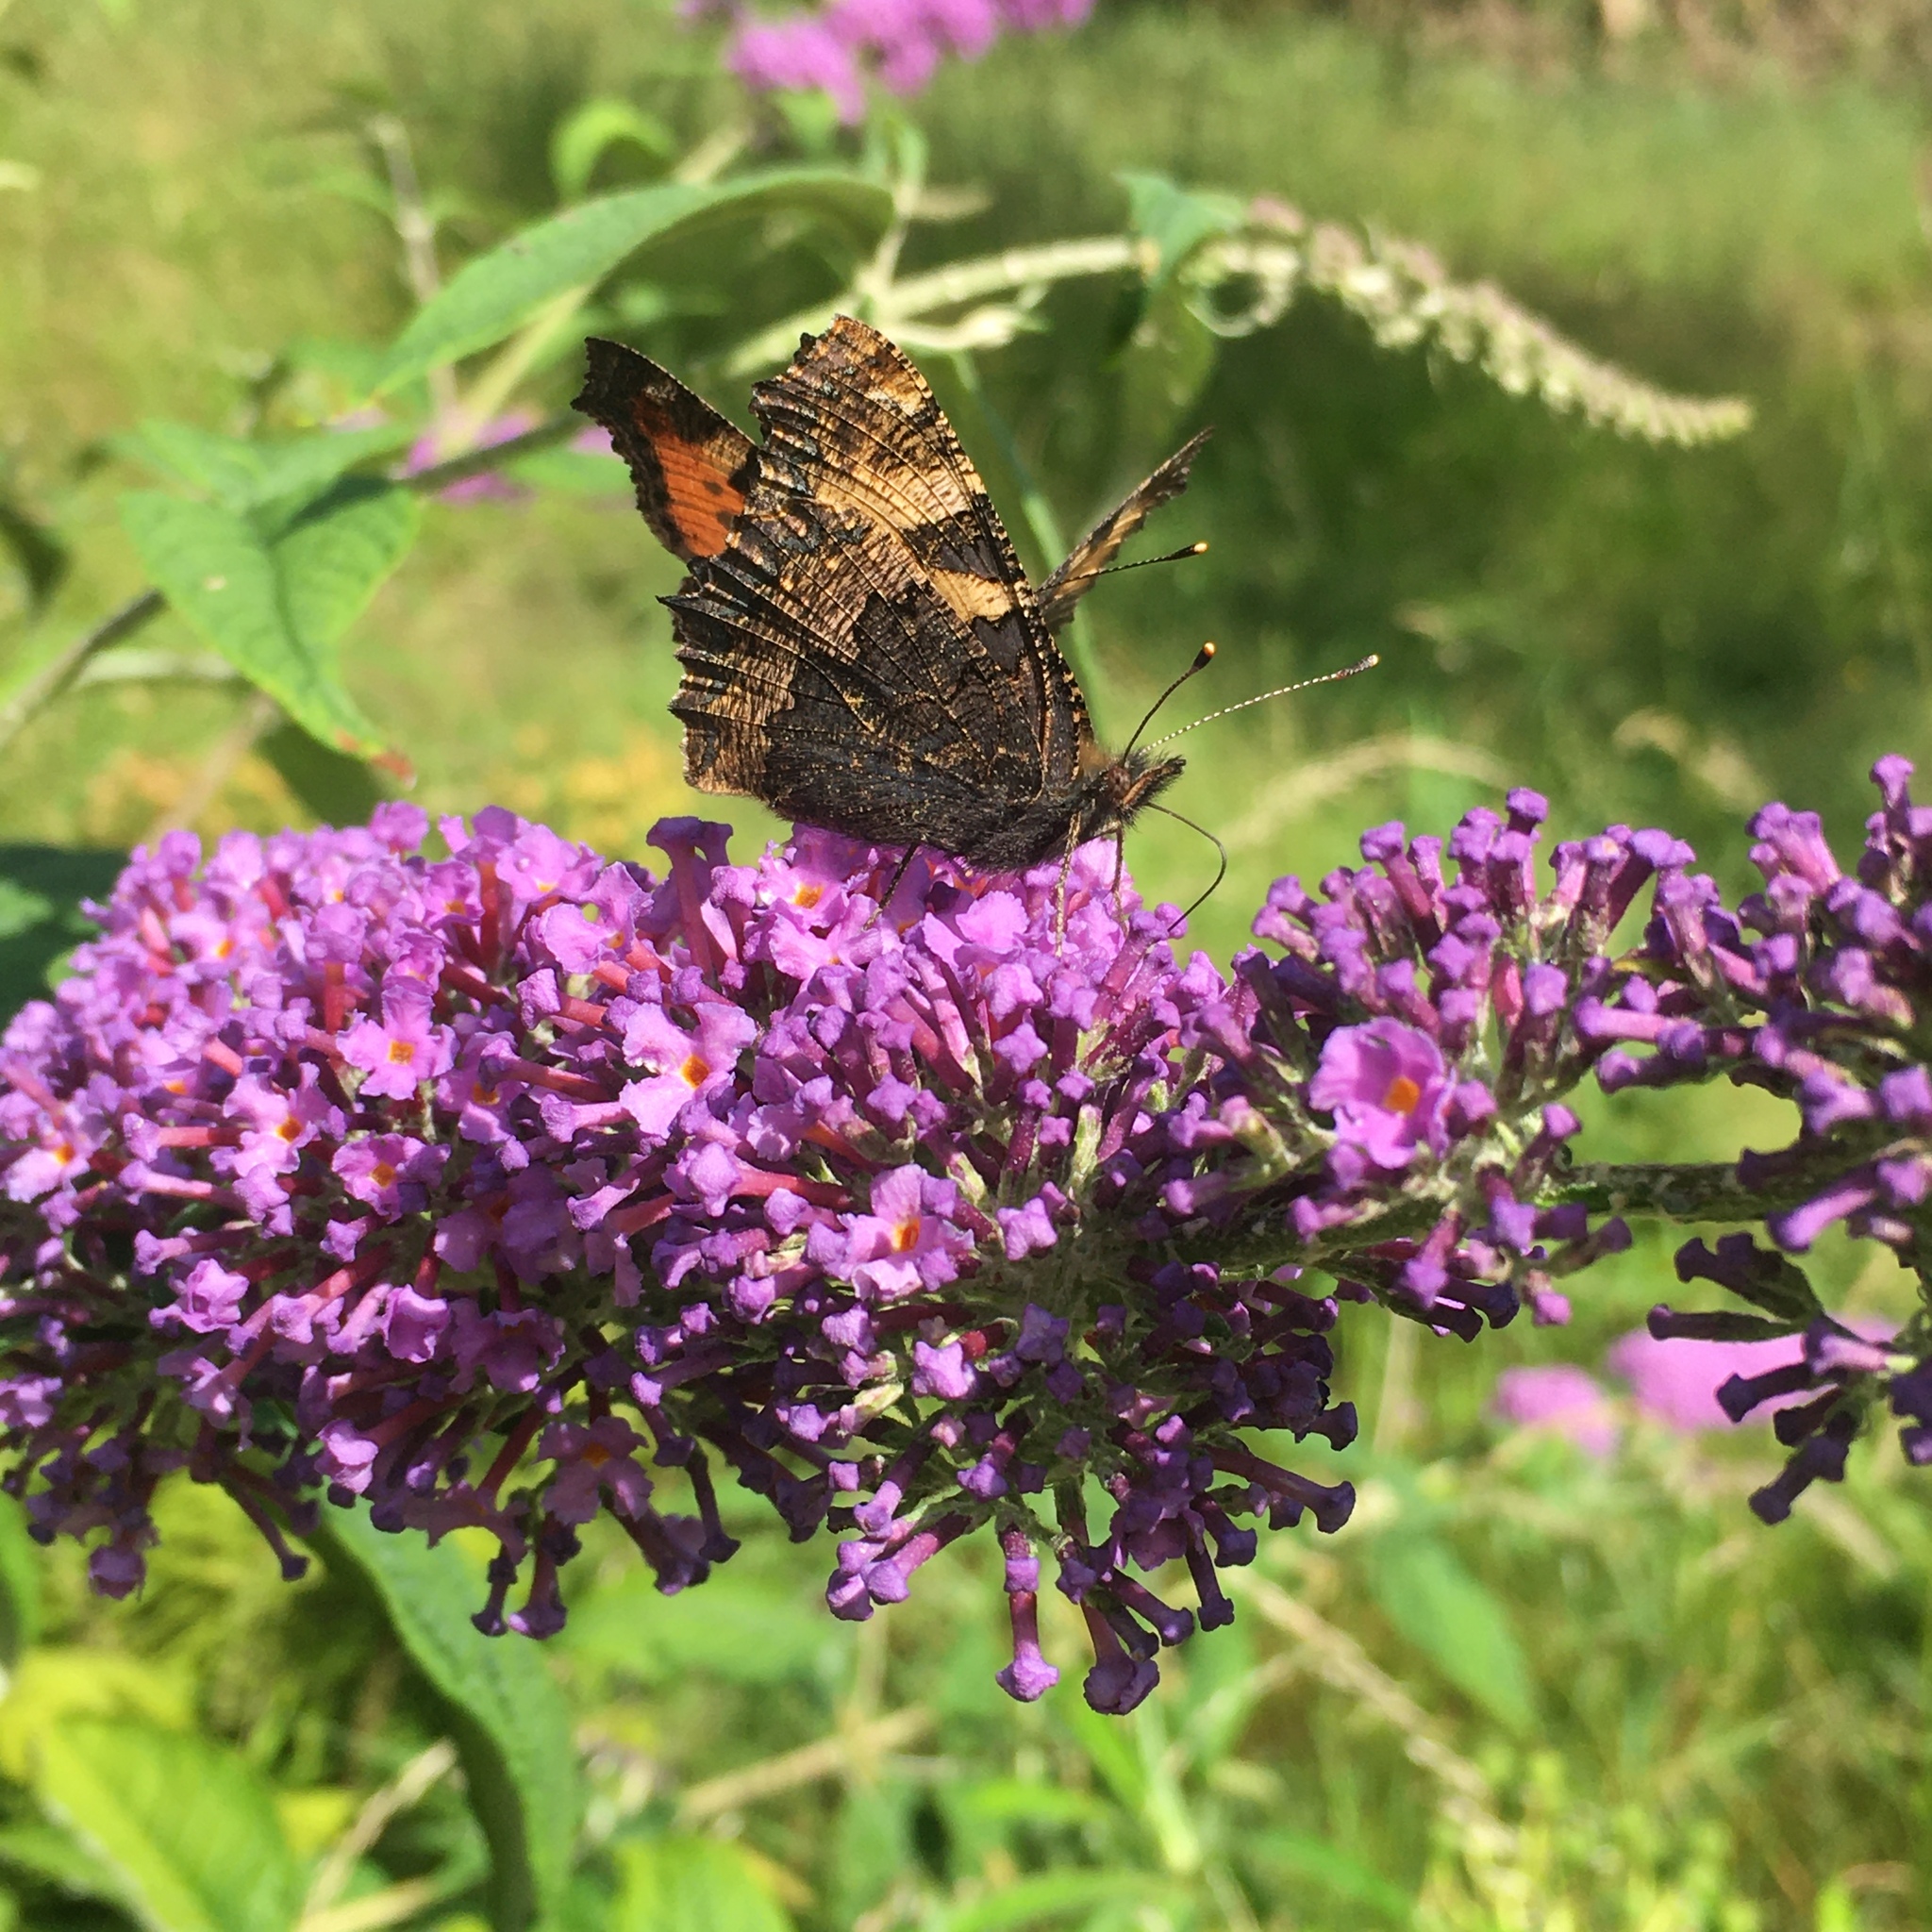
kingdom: Animalia
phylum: Arthropoda
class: Insecta
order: Lepidoptera
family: Nymphalidae
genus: Aglais
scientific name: Aglais urticae
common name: Small tortoiseshell
